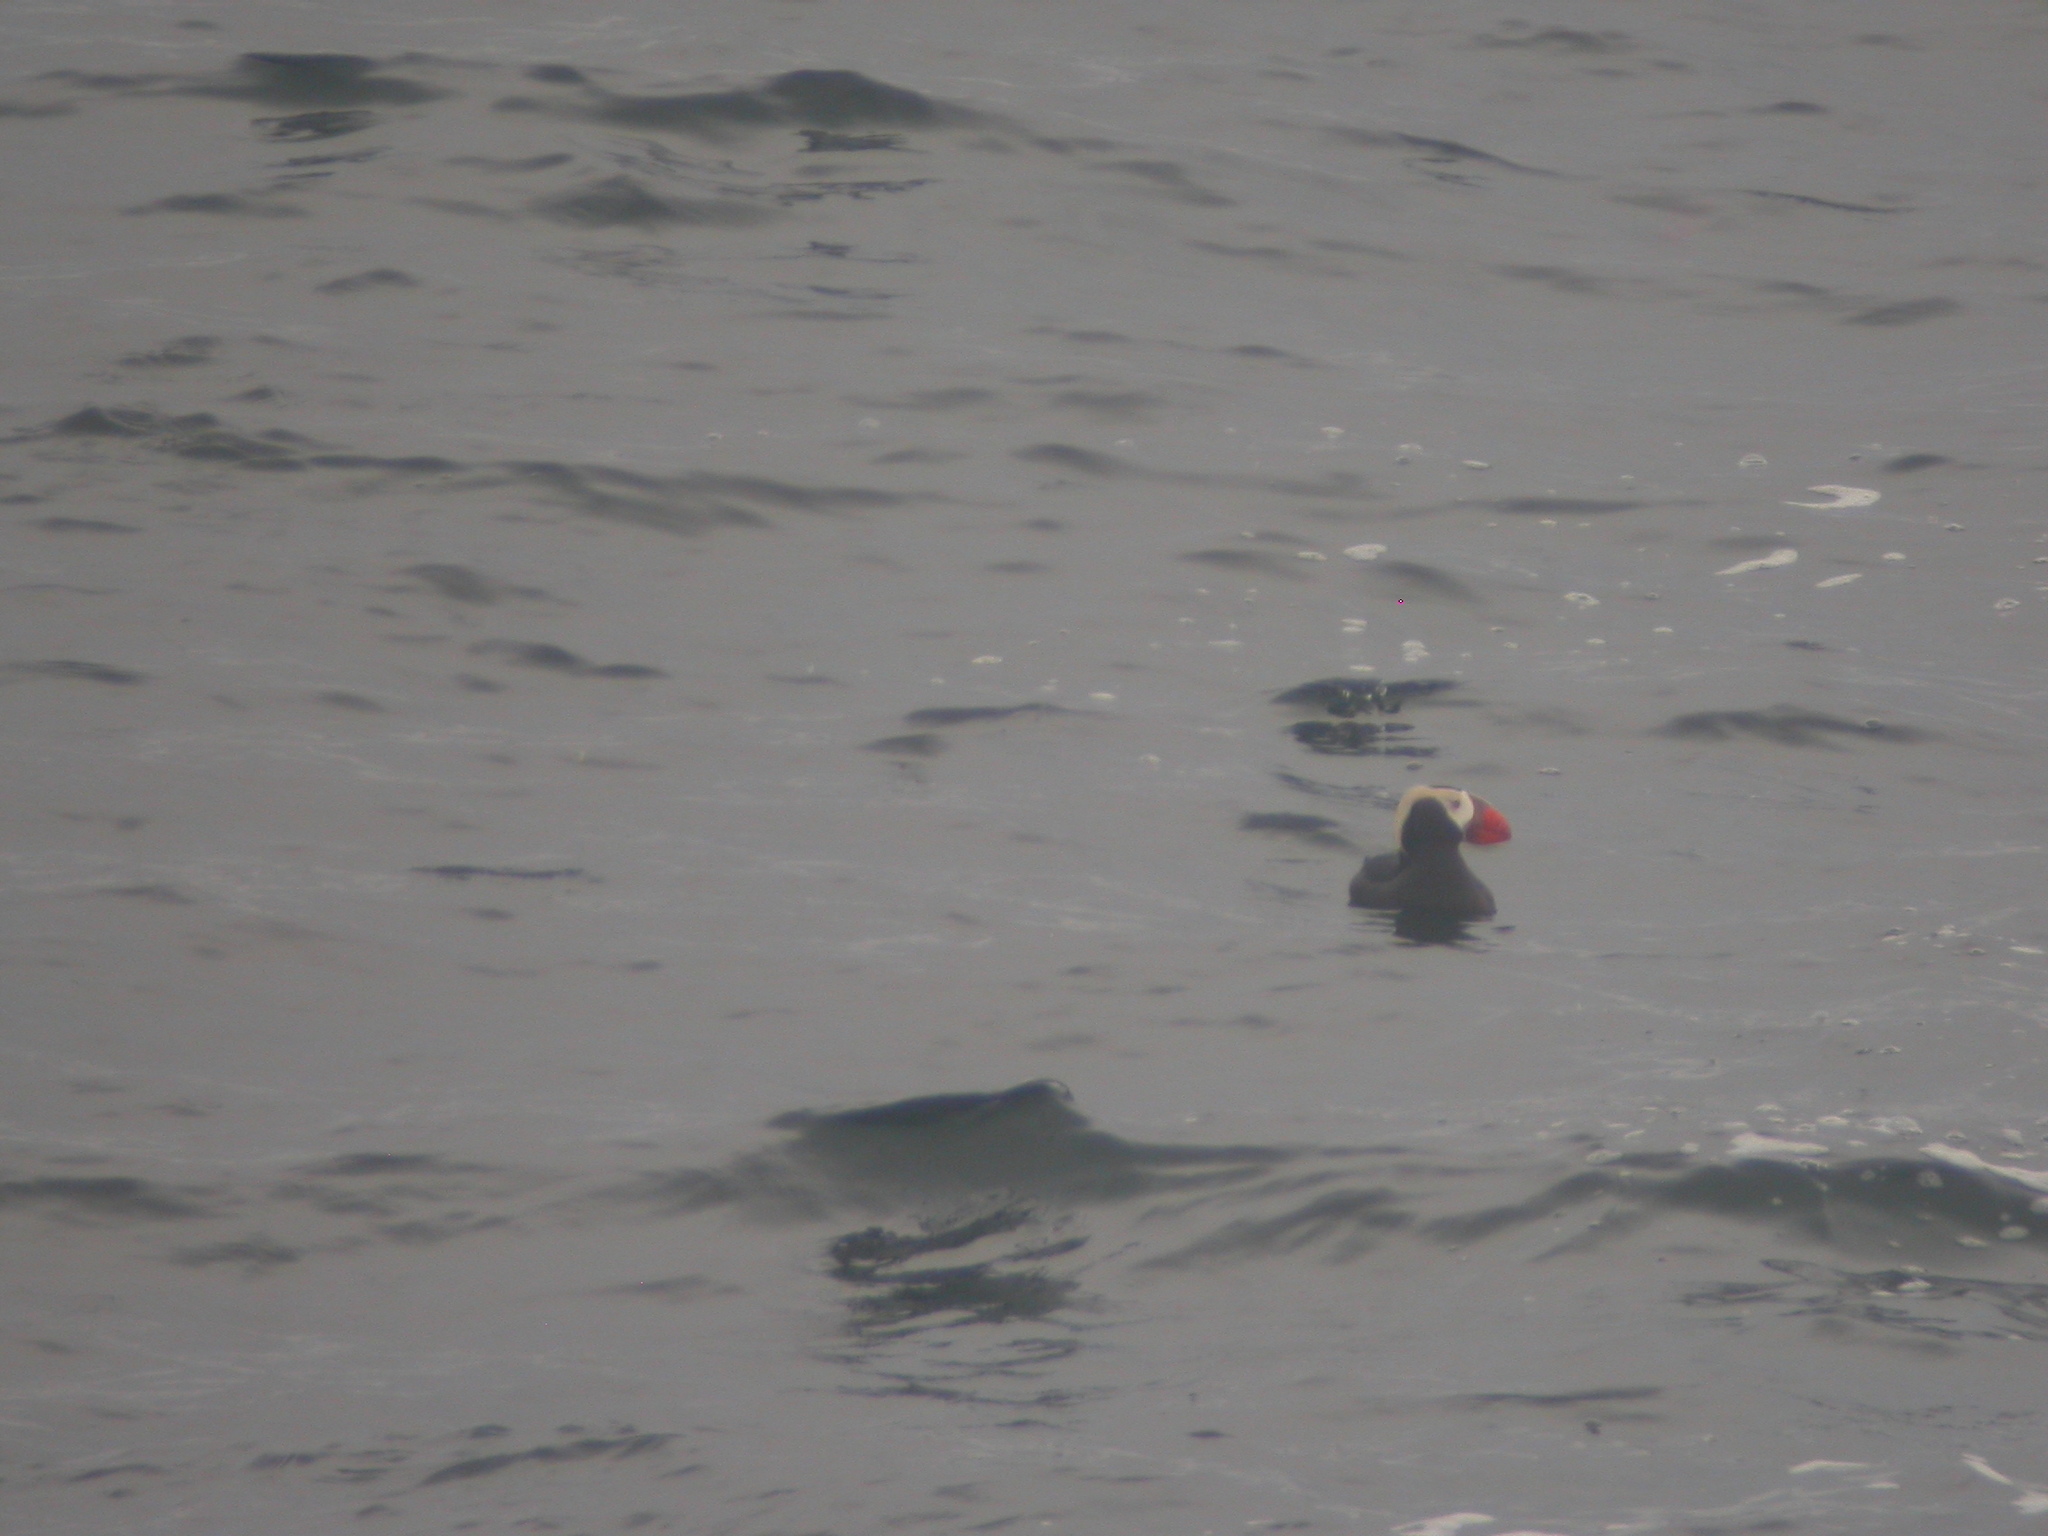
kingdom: Animalia
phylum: Chordata
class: Aves
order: Charadriiformes
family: Alcidae
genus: Fratercula
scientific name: Fratercula cirrhata
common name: Tufted puffin
